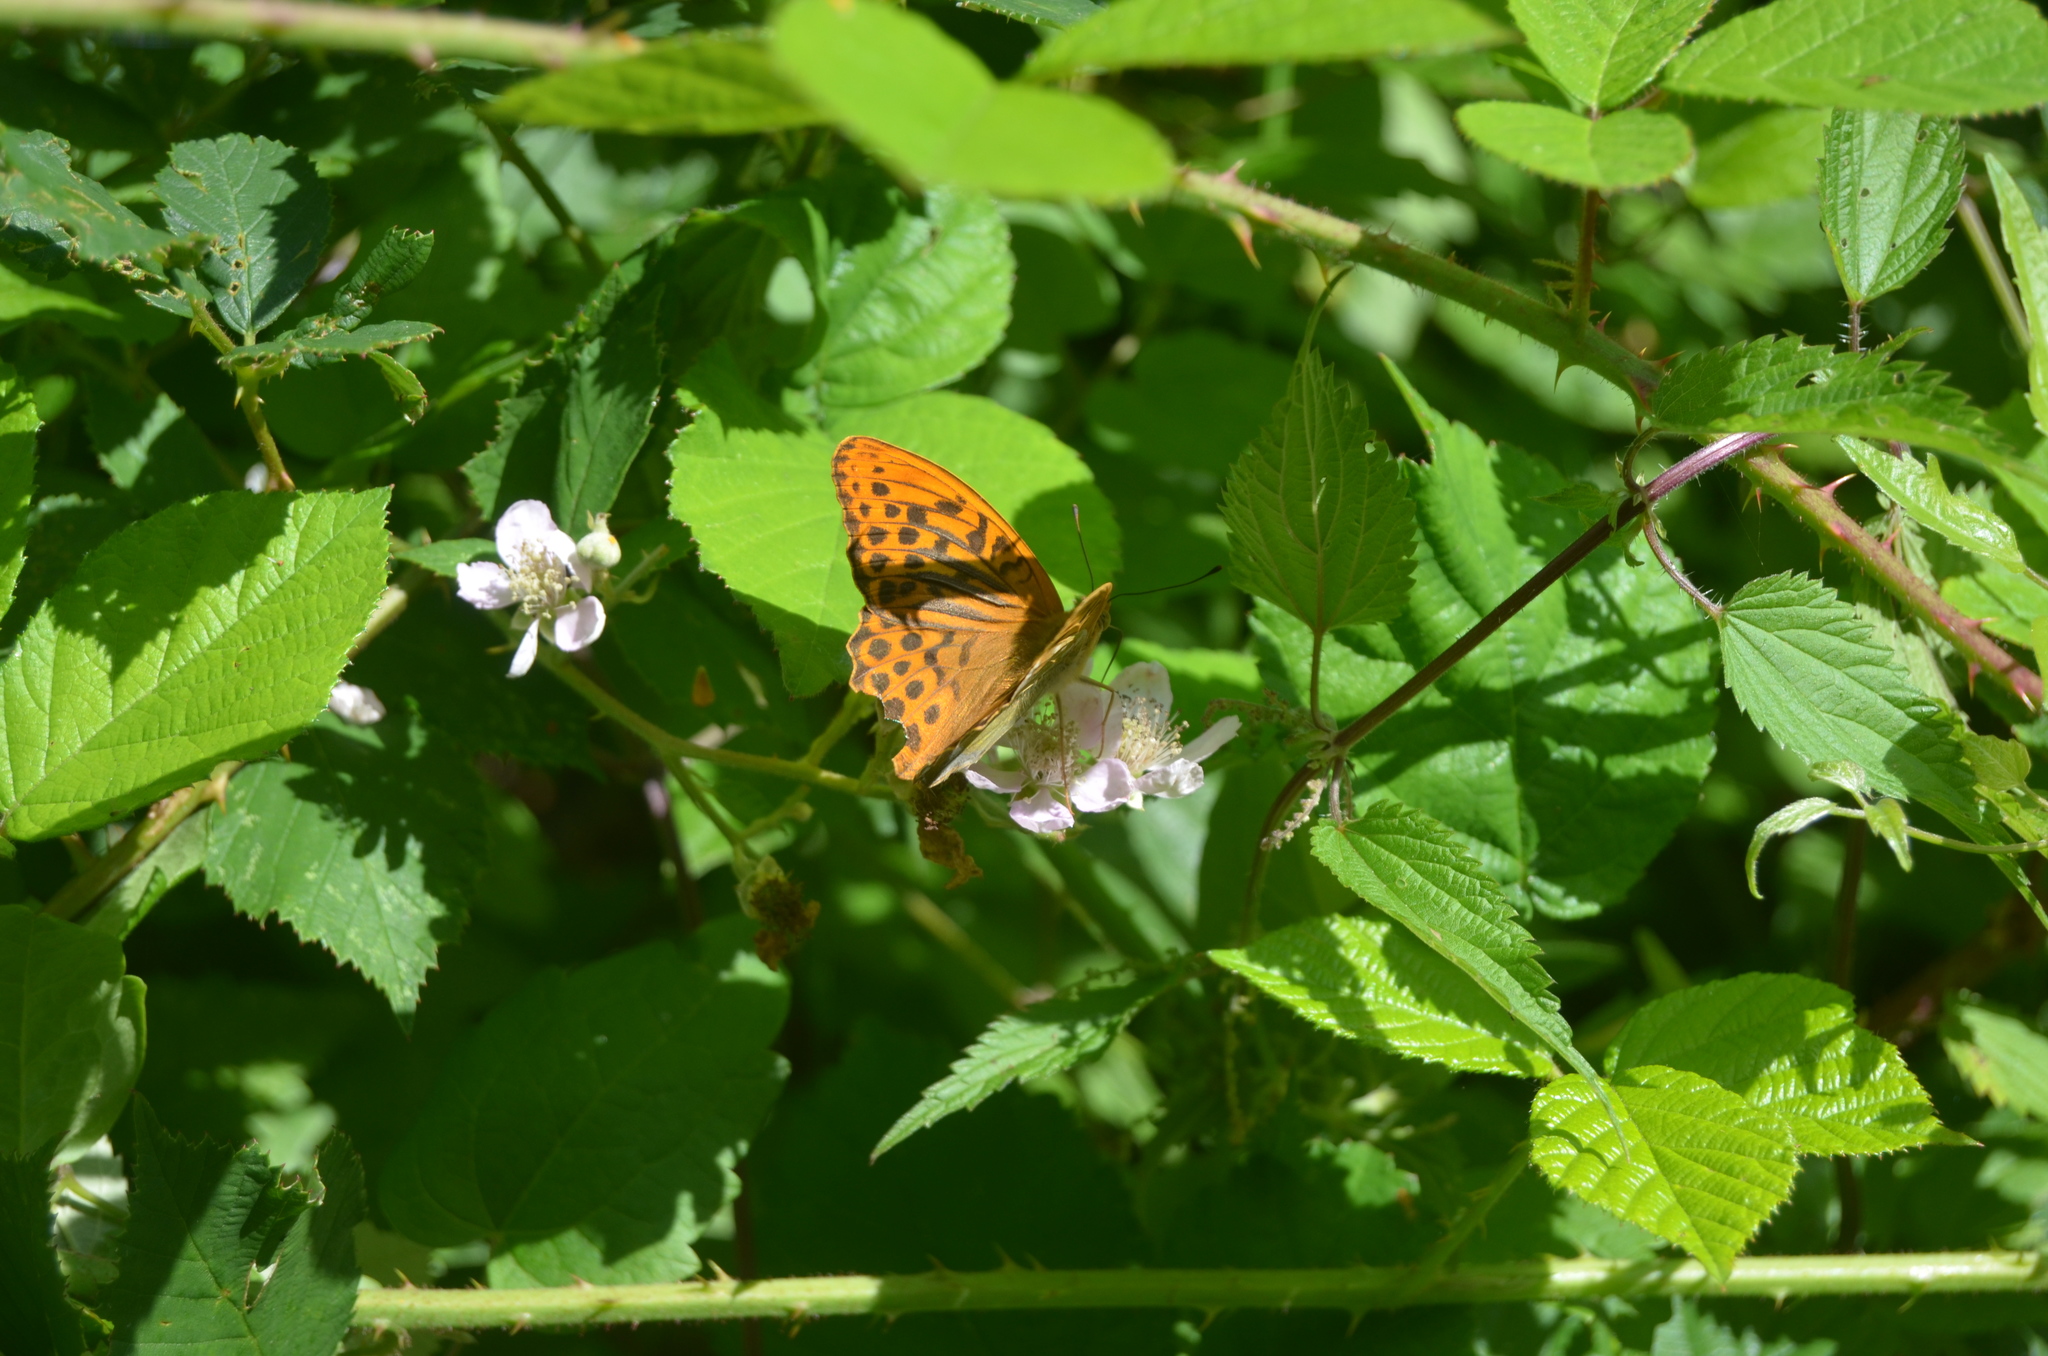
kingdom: Animalia
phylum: Arthropoda
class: Insecta
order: Lepidoptera
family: Nymphalidae
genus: Argynnis
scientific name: Argynnis paphia
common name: Silver-washed fritillary
